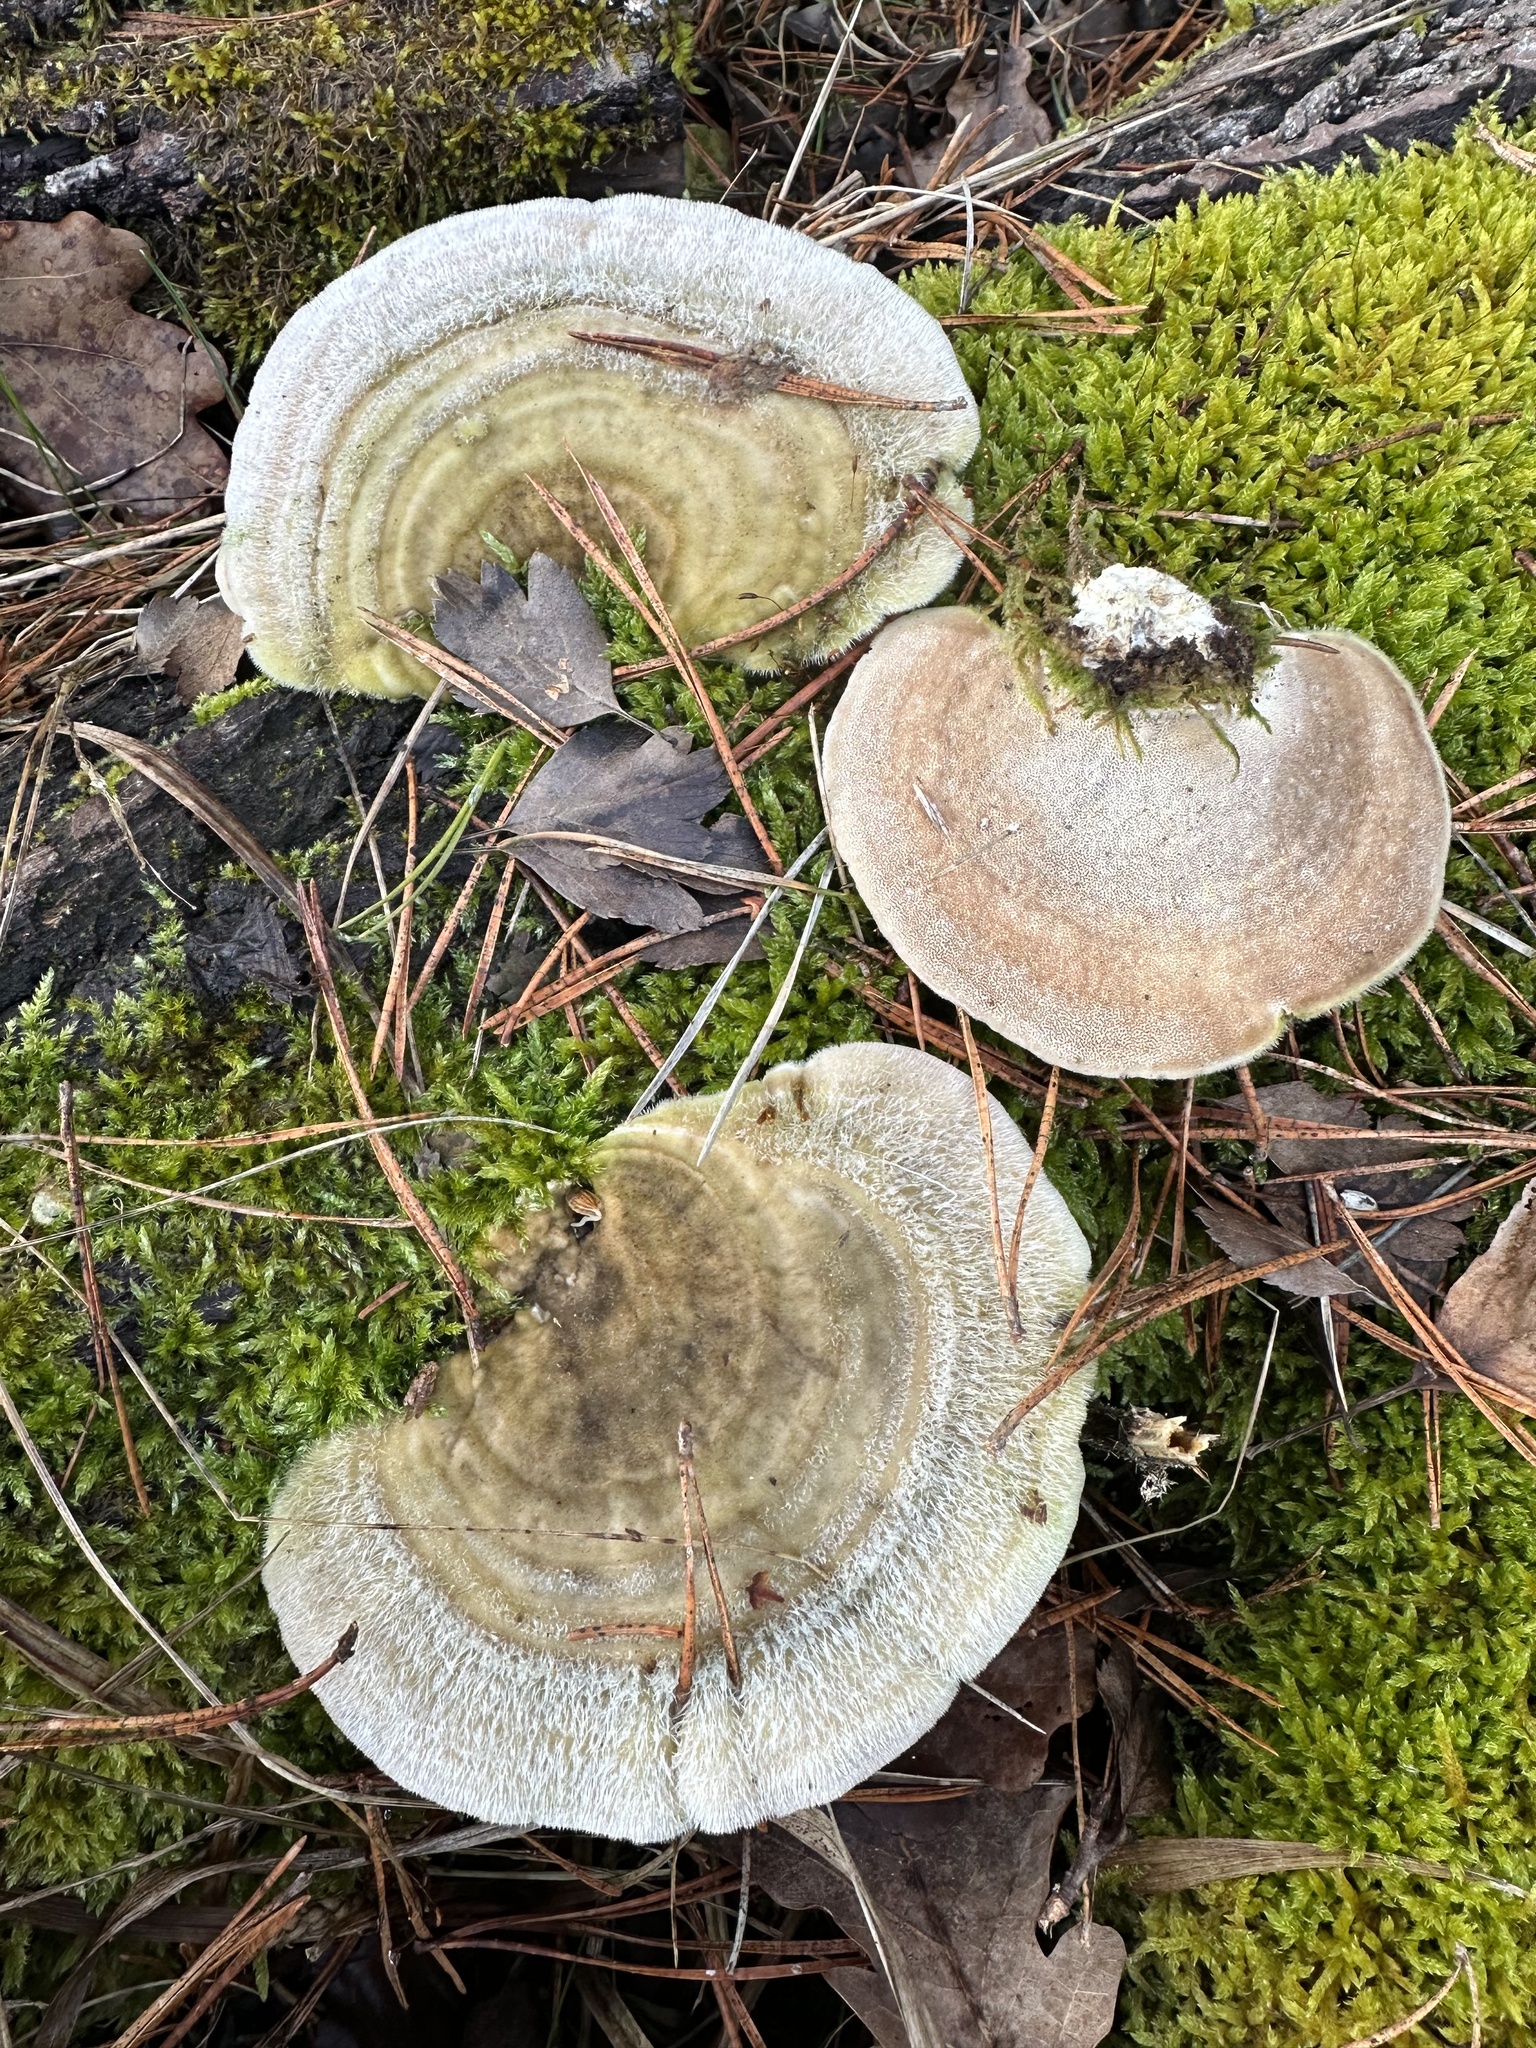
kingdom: Fungi
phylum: Basidiomycota
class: Agaricomycetes
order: Polyporales
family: Polyporaceae
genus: Trametes
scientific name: Trametes hirsuta
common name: Hairy bracket
